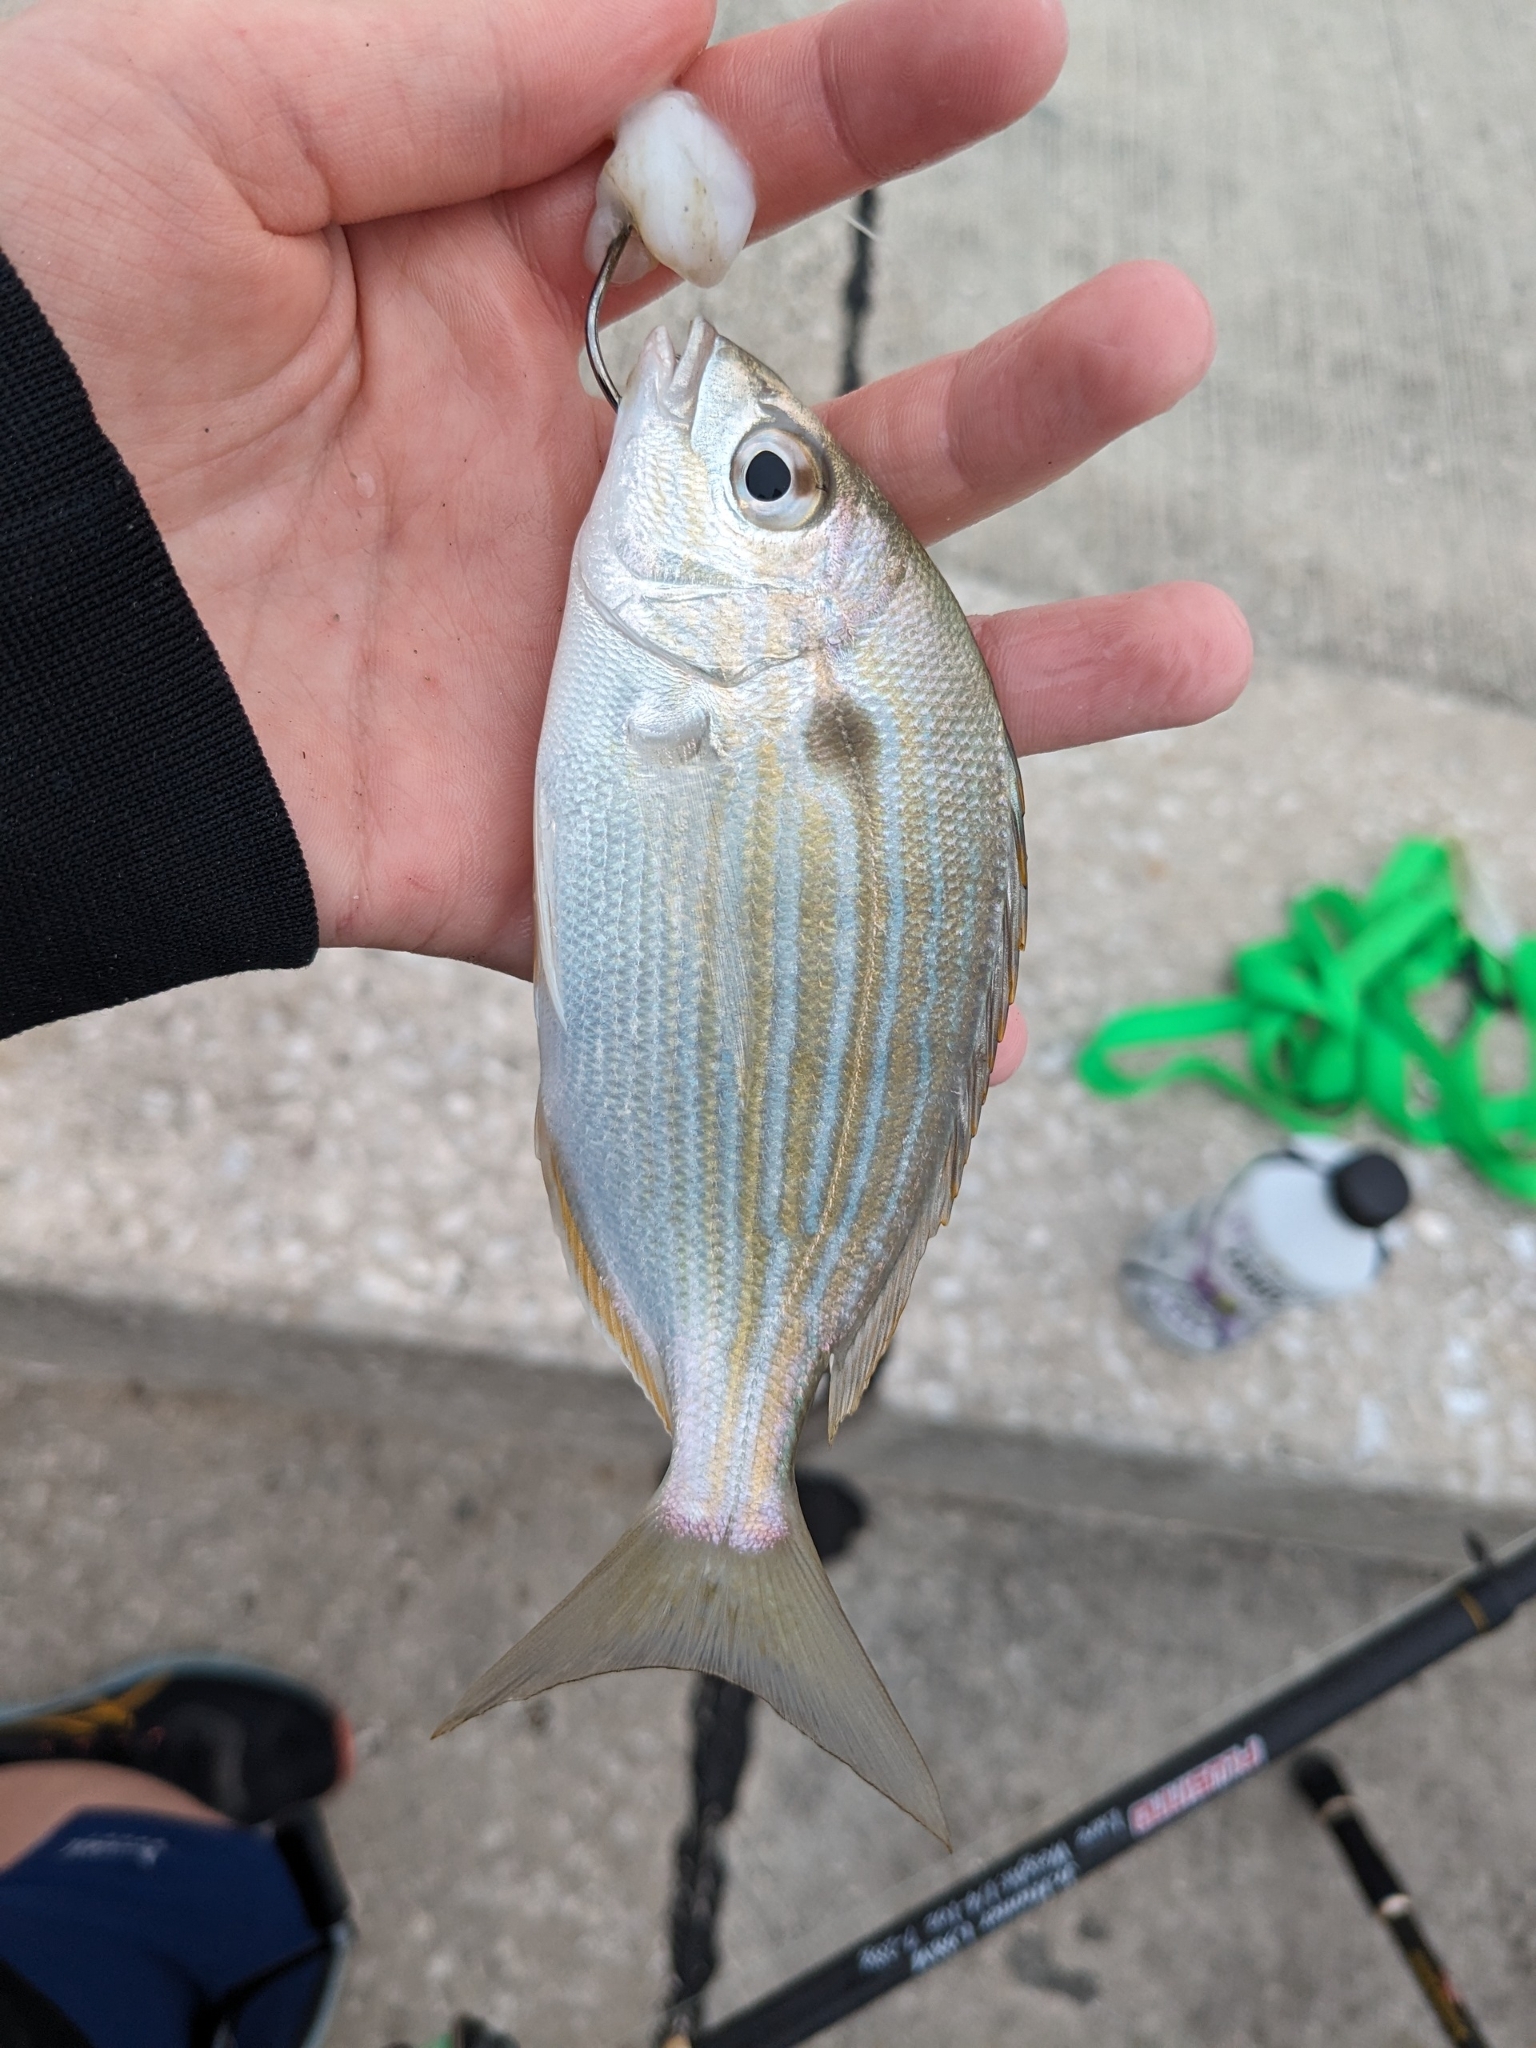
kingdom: Animalia
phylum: Chordata
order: Perciformes
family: Sparidae
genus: Lagodon
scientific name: Lagodon rhomboides
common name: Pinfish
